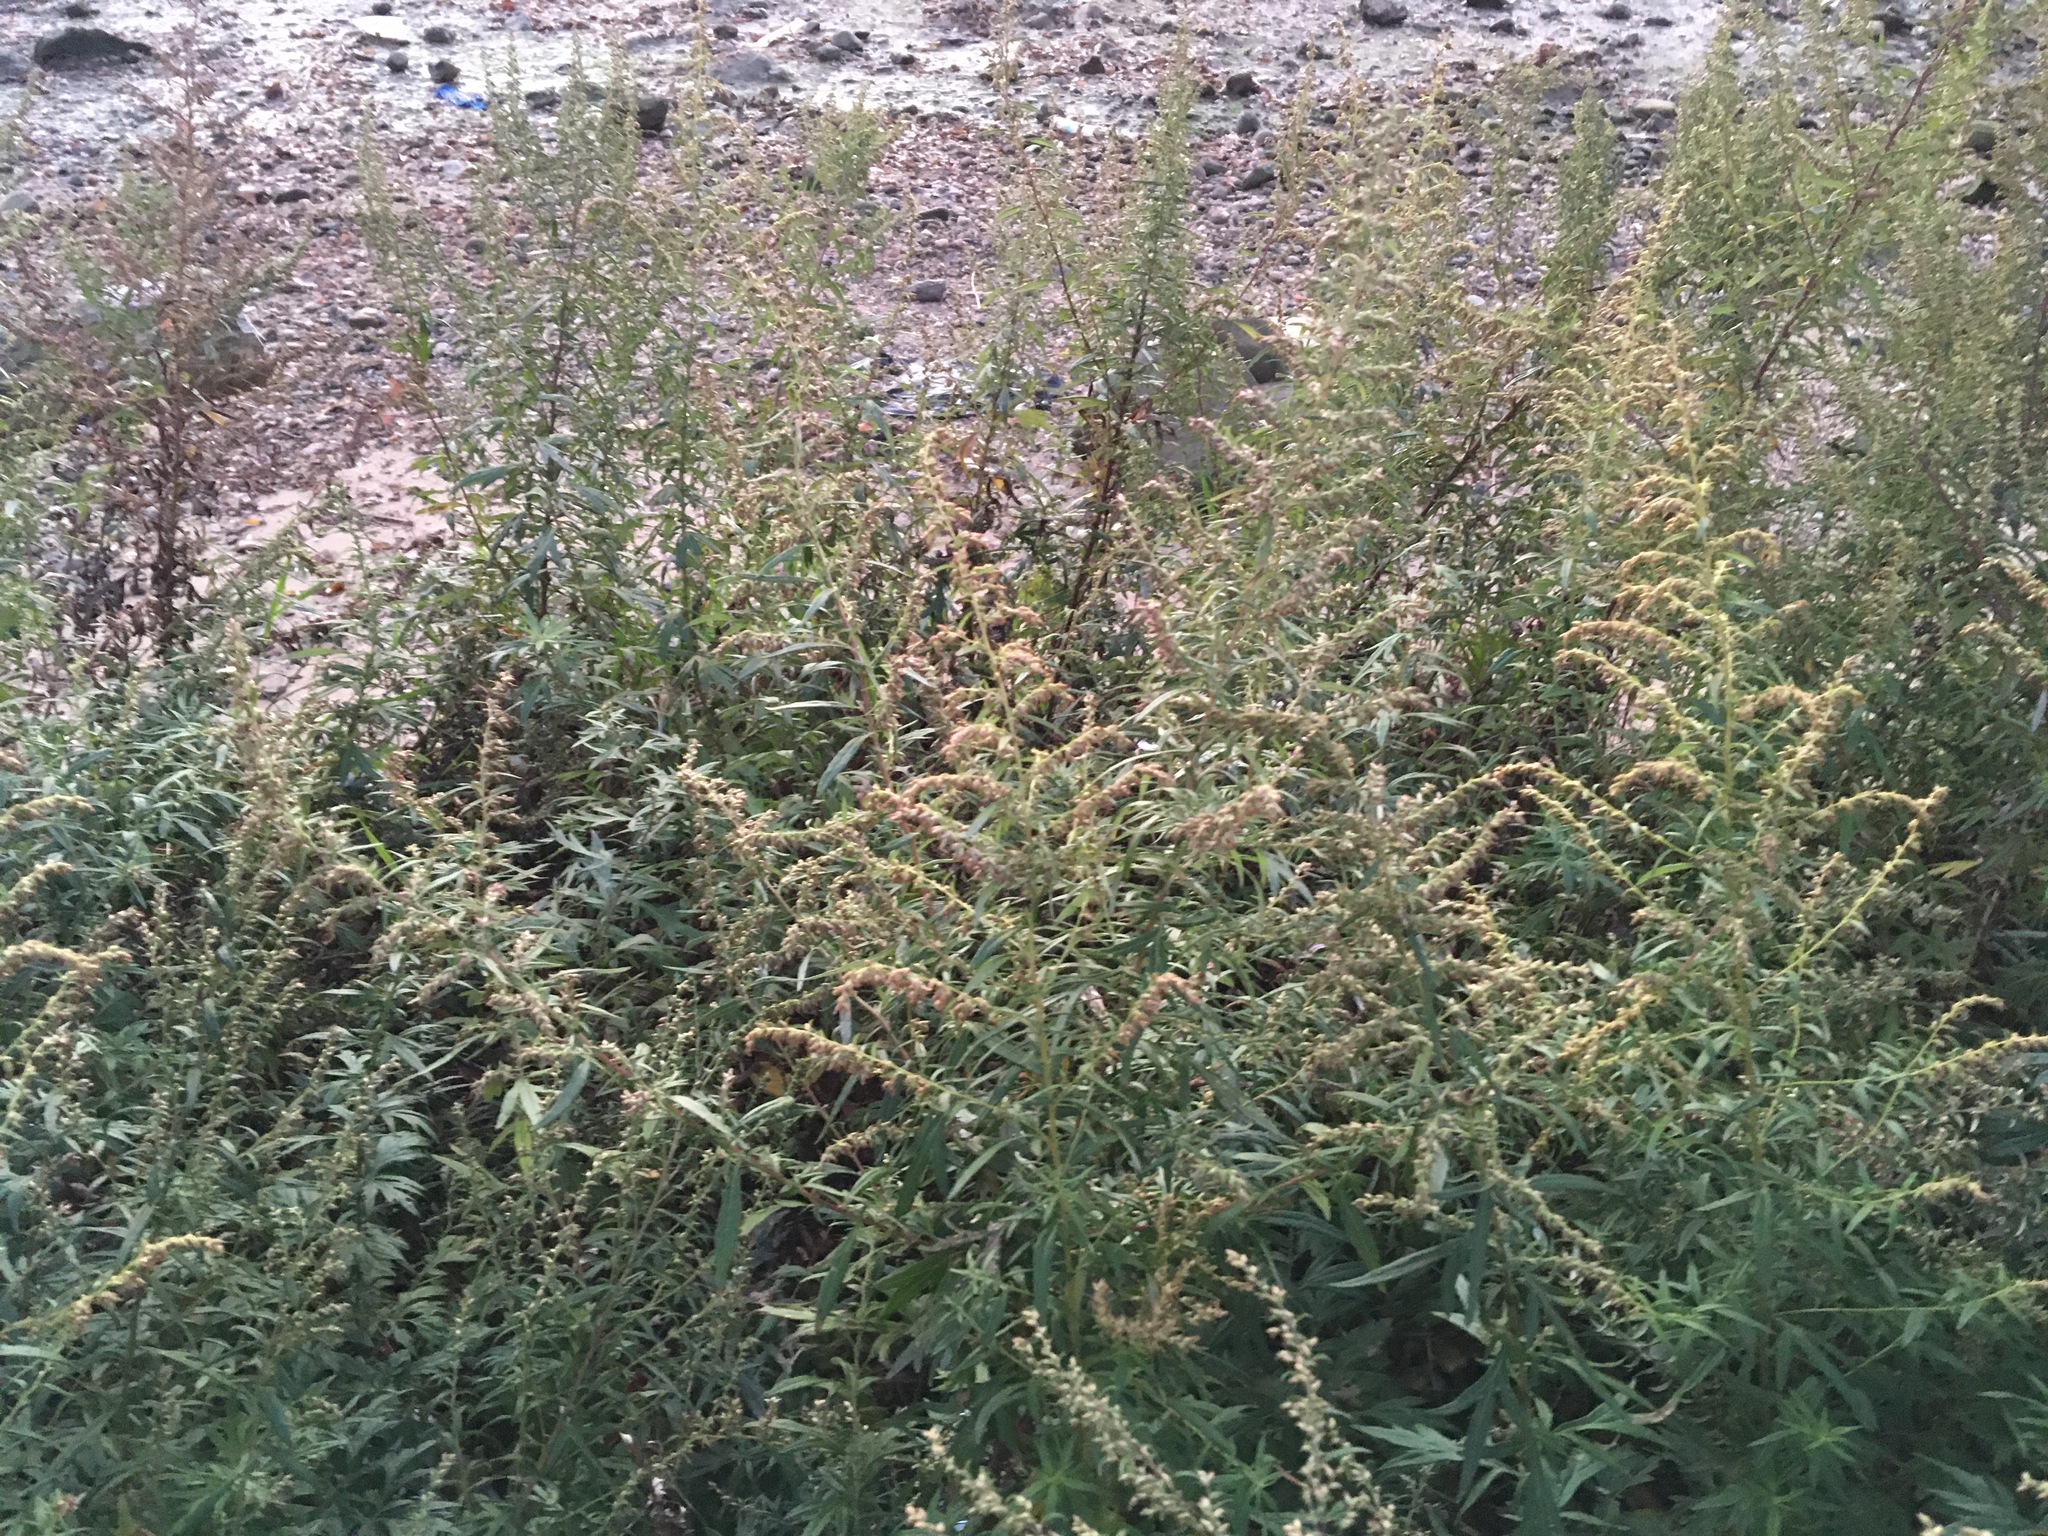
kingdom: Plantae
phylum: Tracheophyta
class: Magnoliopsida
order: Asterales
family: Asteraceae
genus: Artemisia
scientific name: Artemisia vulgaris
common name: Mugwort
